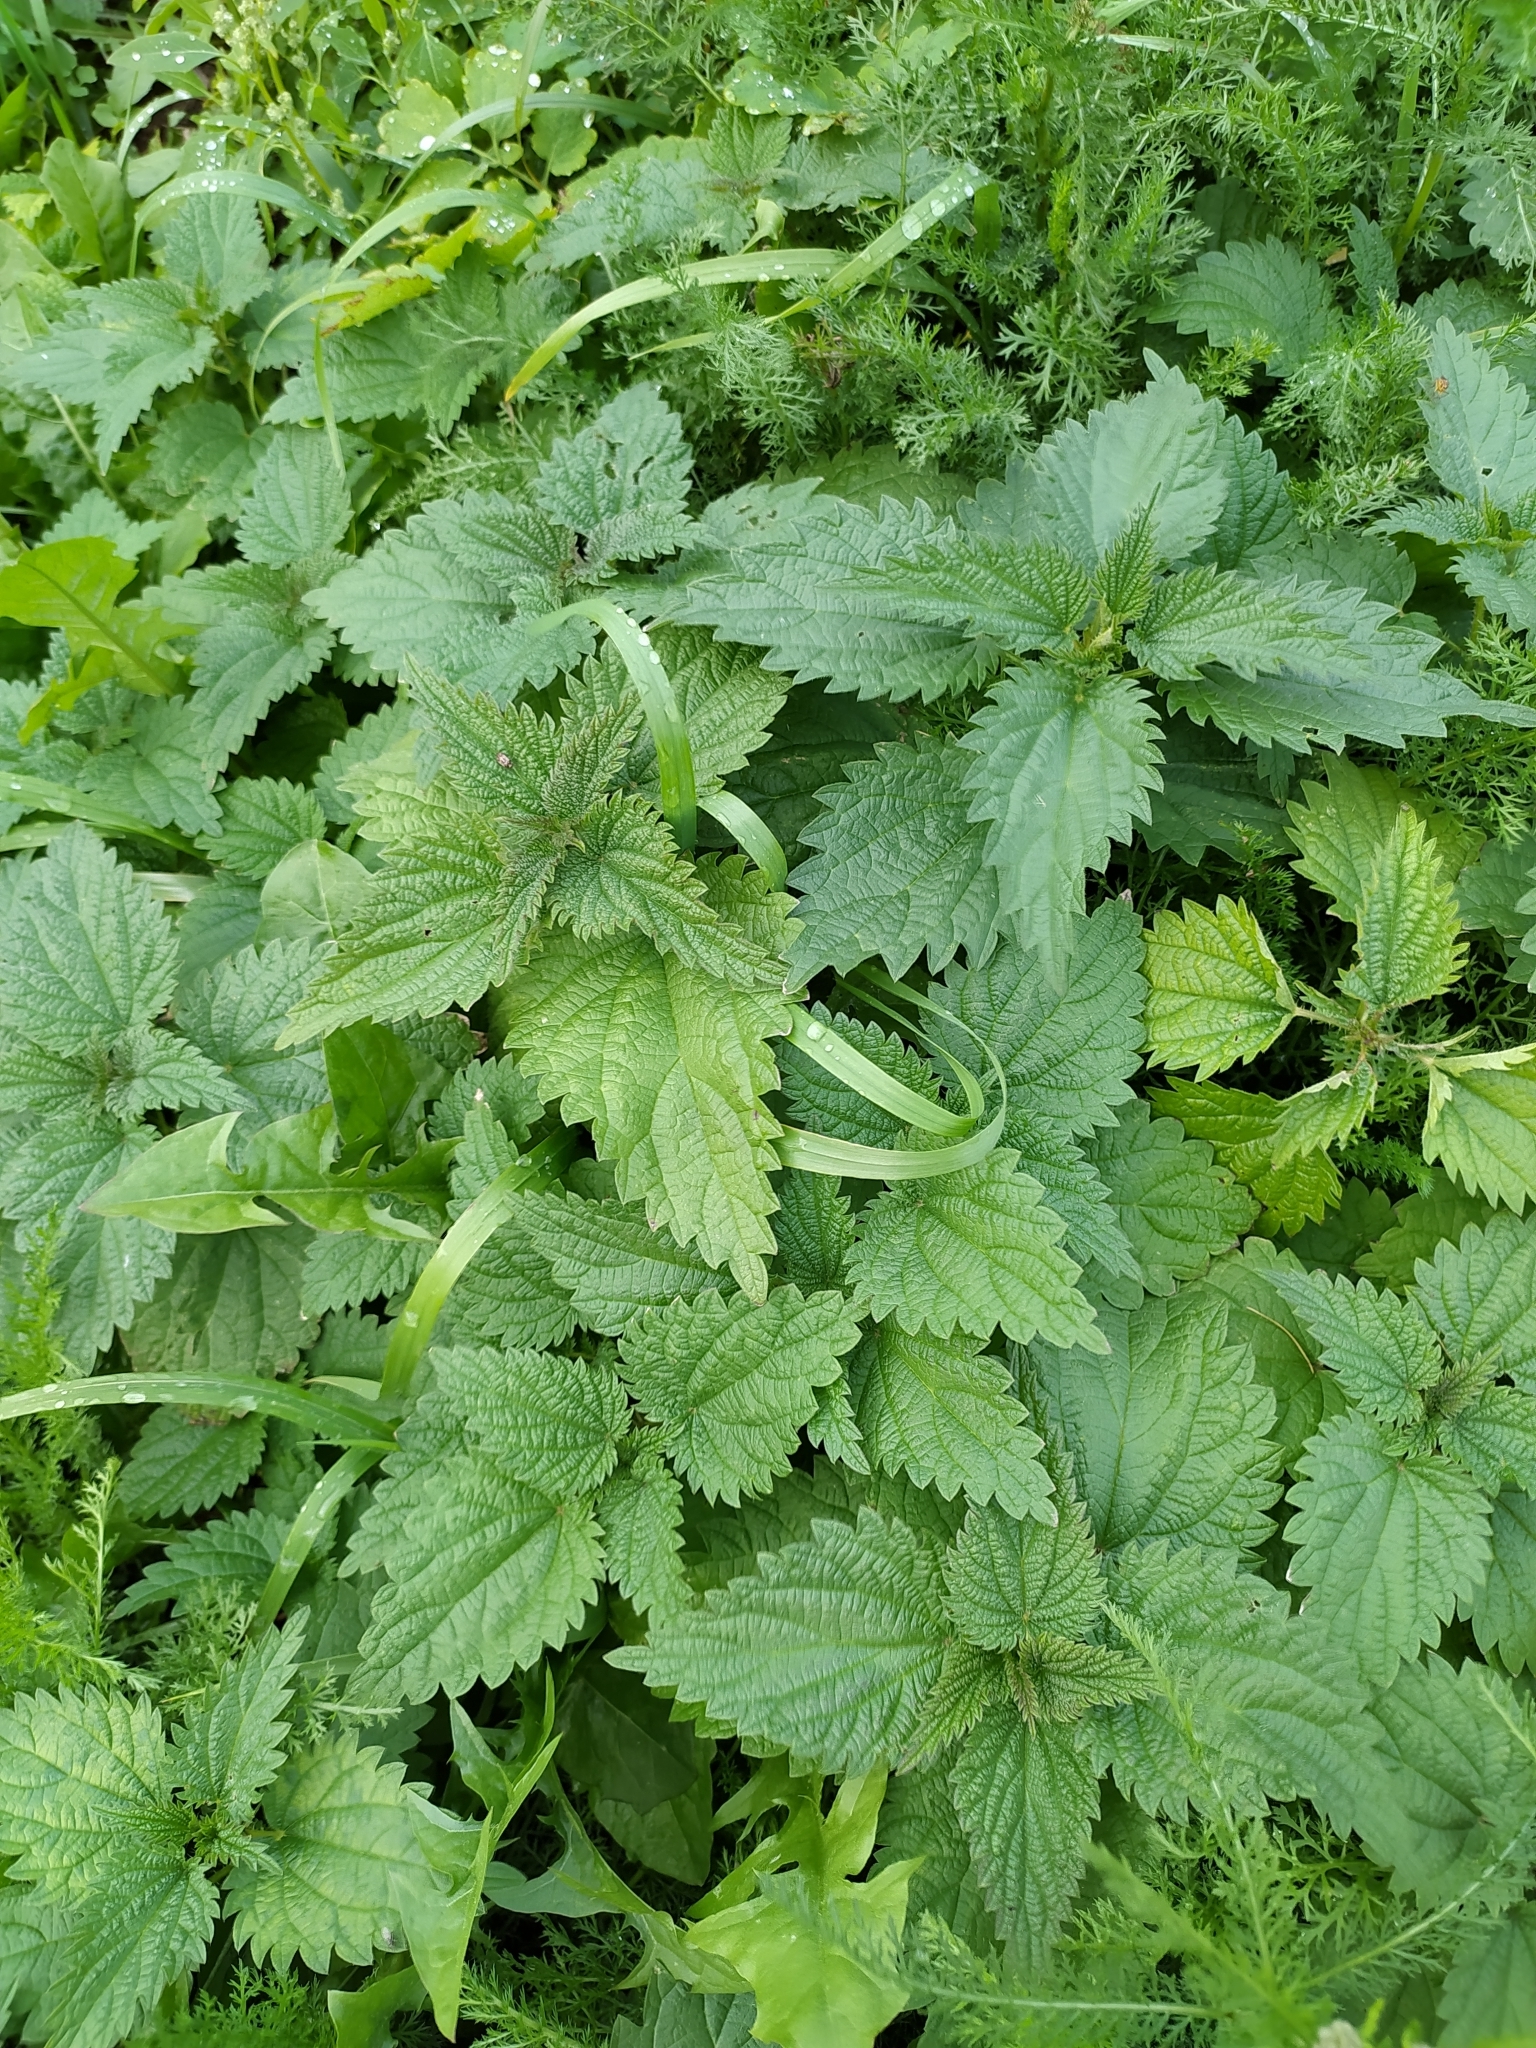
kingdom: Plantae
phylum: Tracheophyta
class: Magnoliopsida
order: Rosales
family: Urticaceae
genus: Urtica
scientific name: Urtica dioica
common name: Common nettle
